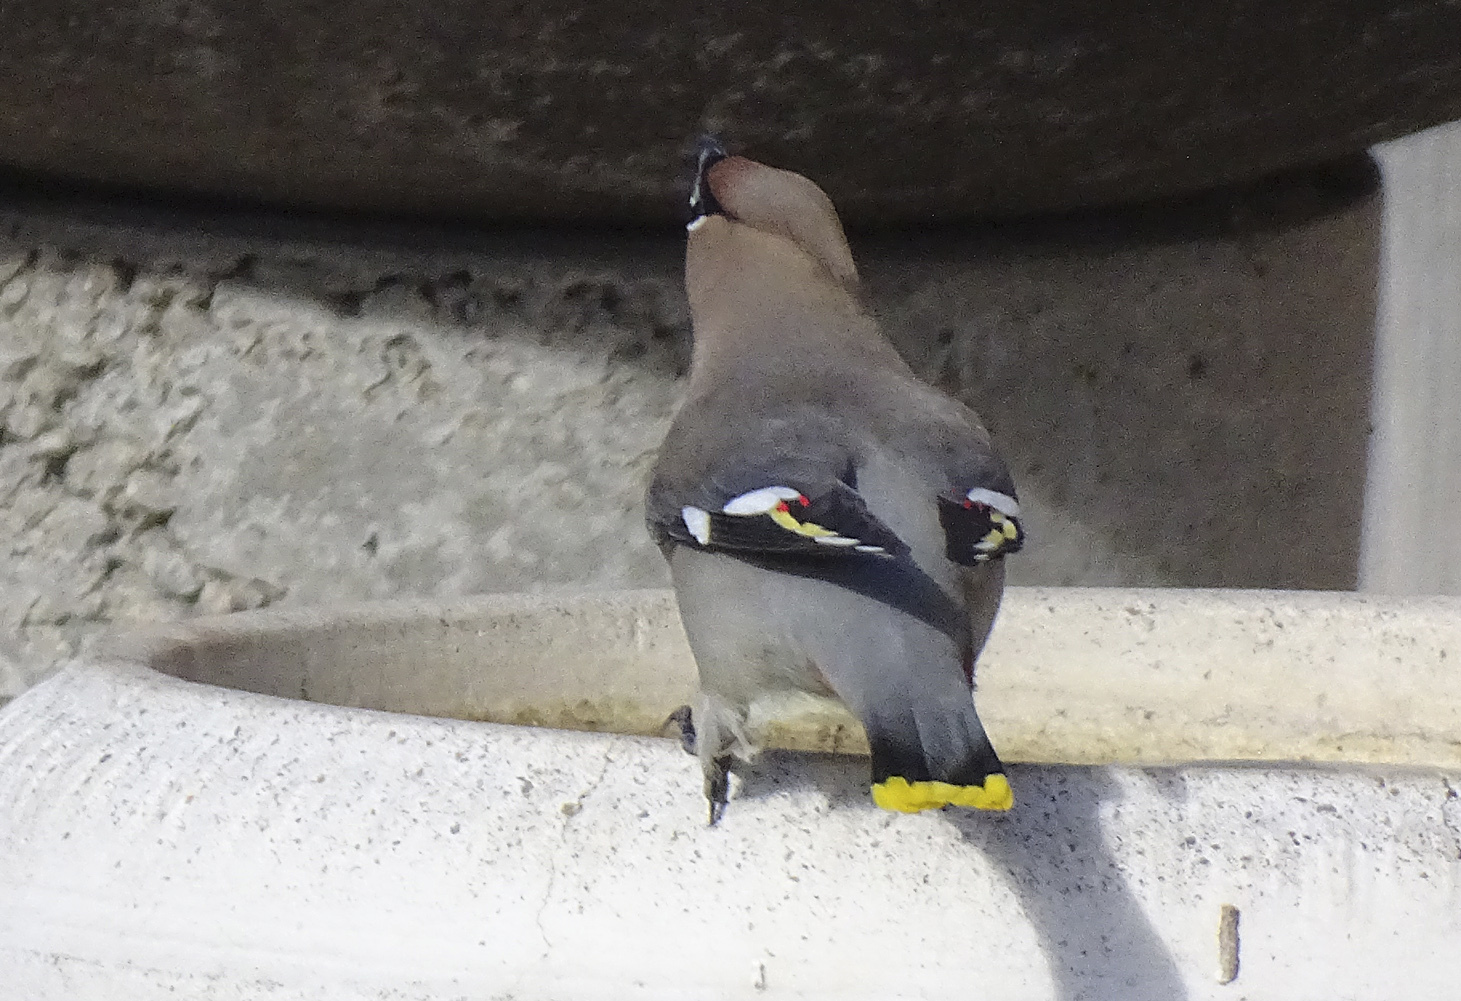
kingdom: Animalia
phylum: Chordata
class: Aves
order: Passeriformes
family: Bombycillidae
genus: Bombycilla
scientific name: Bombycilla garrulus
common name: Bohemian waxwing
